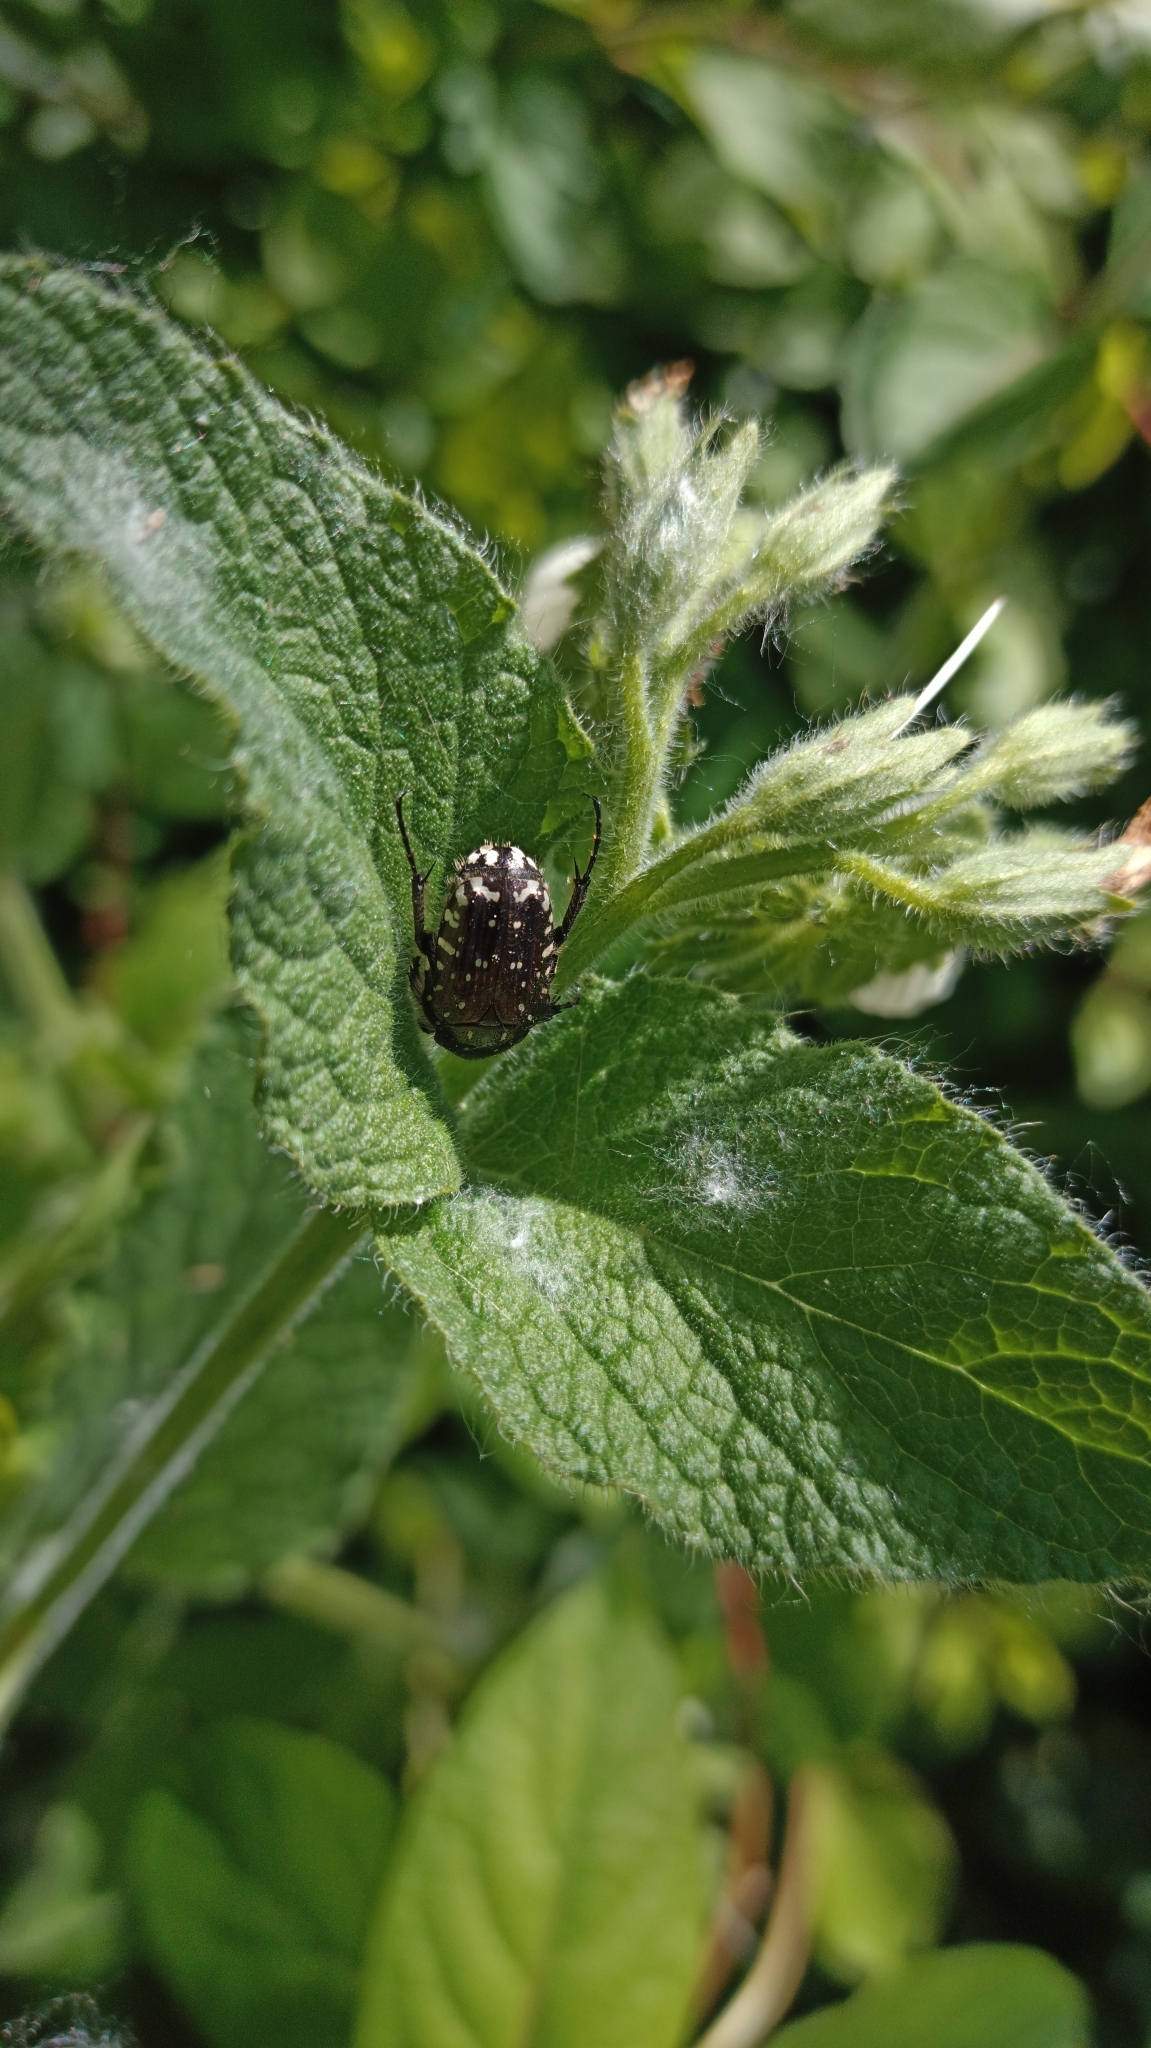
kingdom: Animalia
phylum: Arthropoda
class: Insecta
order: Coleoptera
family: Scarabaeidae
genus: Oxythyrea
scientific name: Oxythyrea funesta
